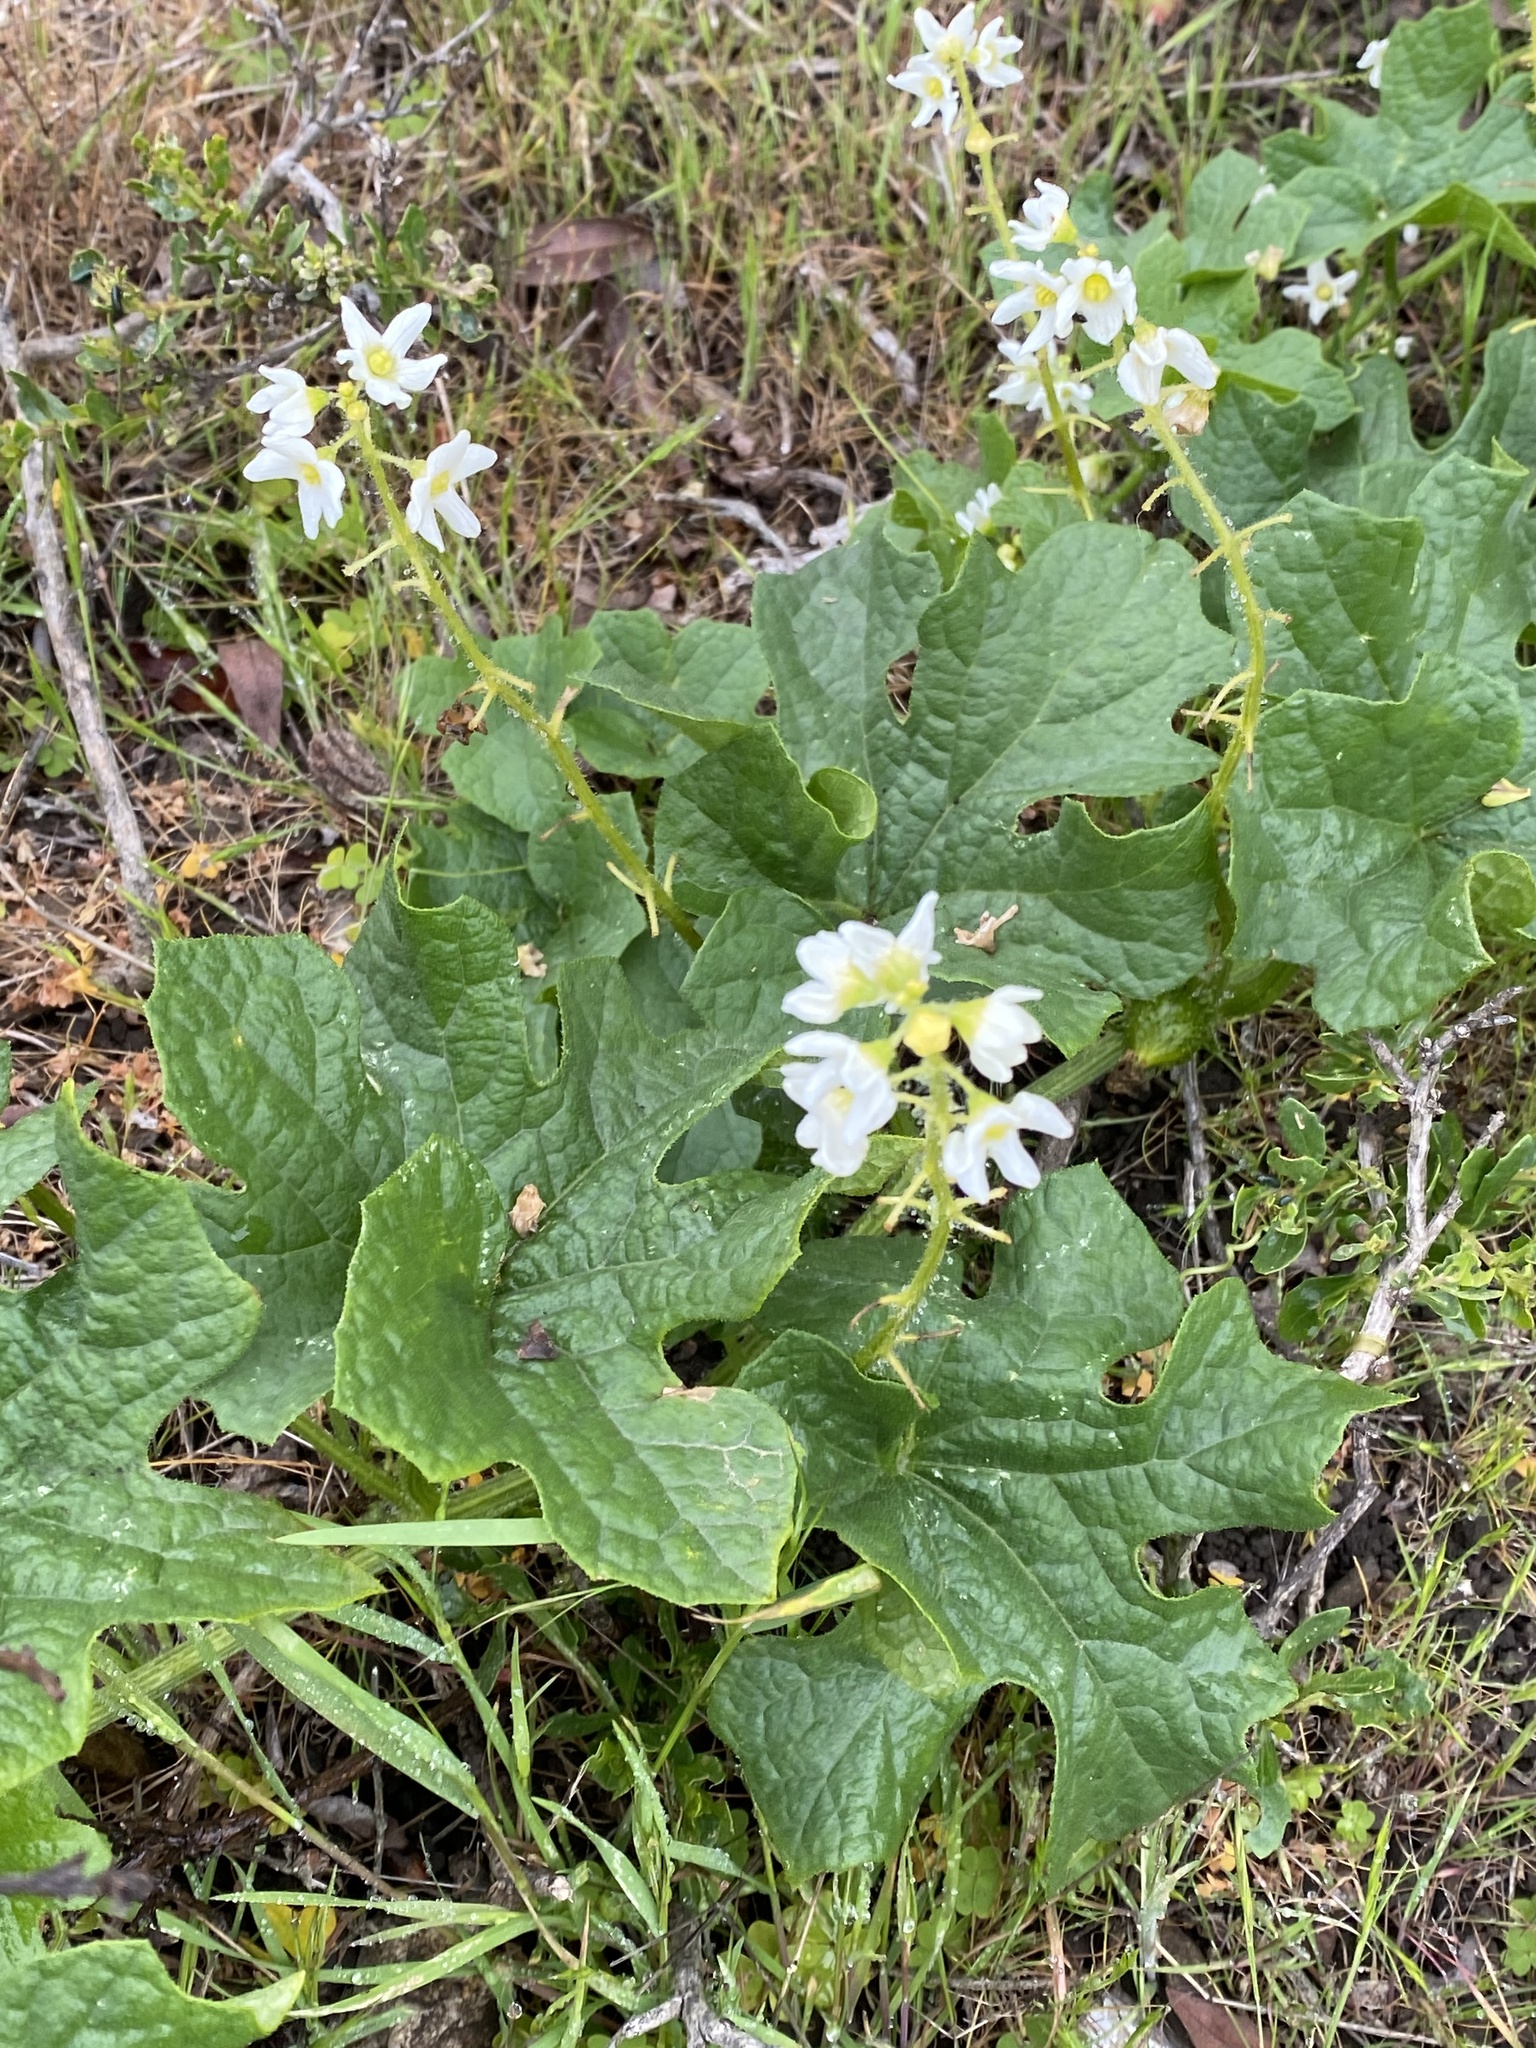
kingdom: Plantae
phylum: Tracheophyta
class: Magnoliopsida
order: Cucurbitales
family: Cucurbitaceae
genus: Marah
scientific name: Marah oregana
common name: Coastal manroot
